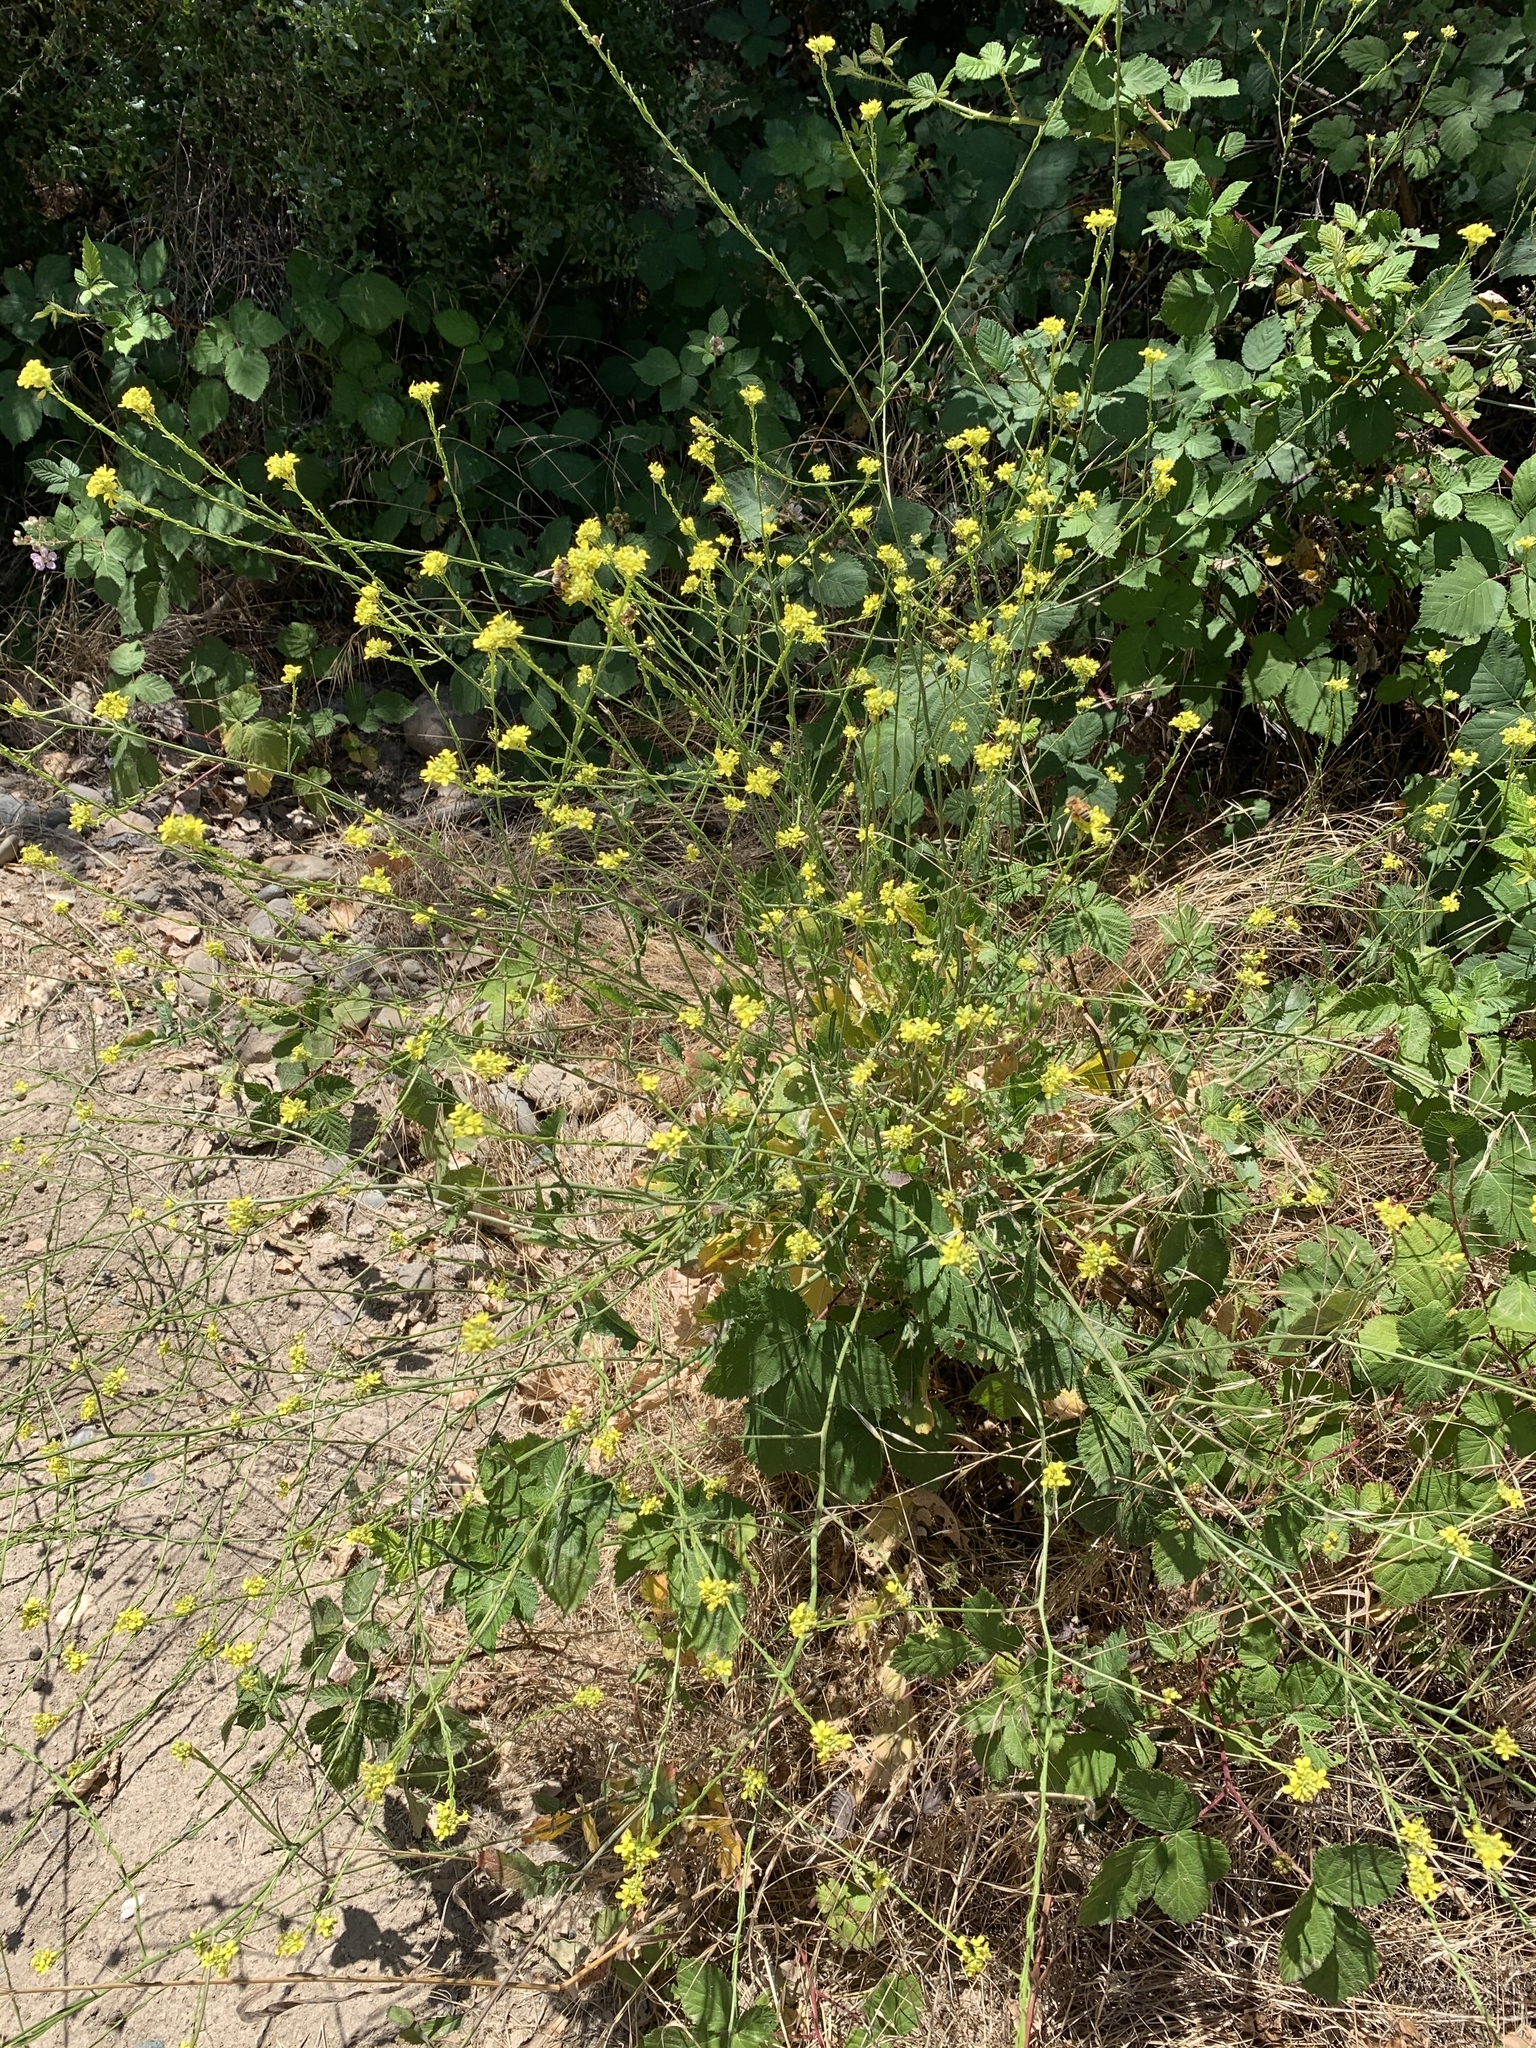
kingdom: Plantae
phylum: Tracheophyta
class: Magnoliopsida
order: Brassicales
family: Brassicaceae
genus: Hirschfeldia
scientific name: Hirschfeldia incana
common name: Hoary mustard
